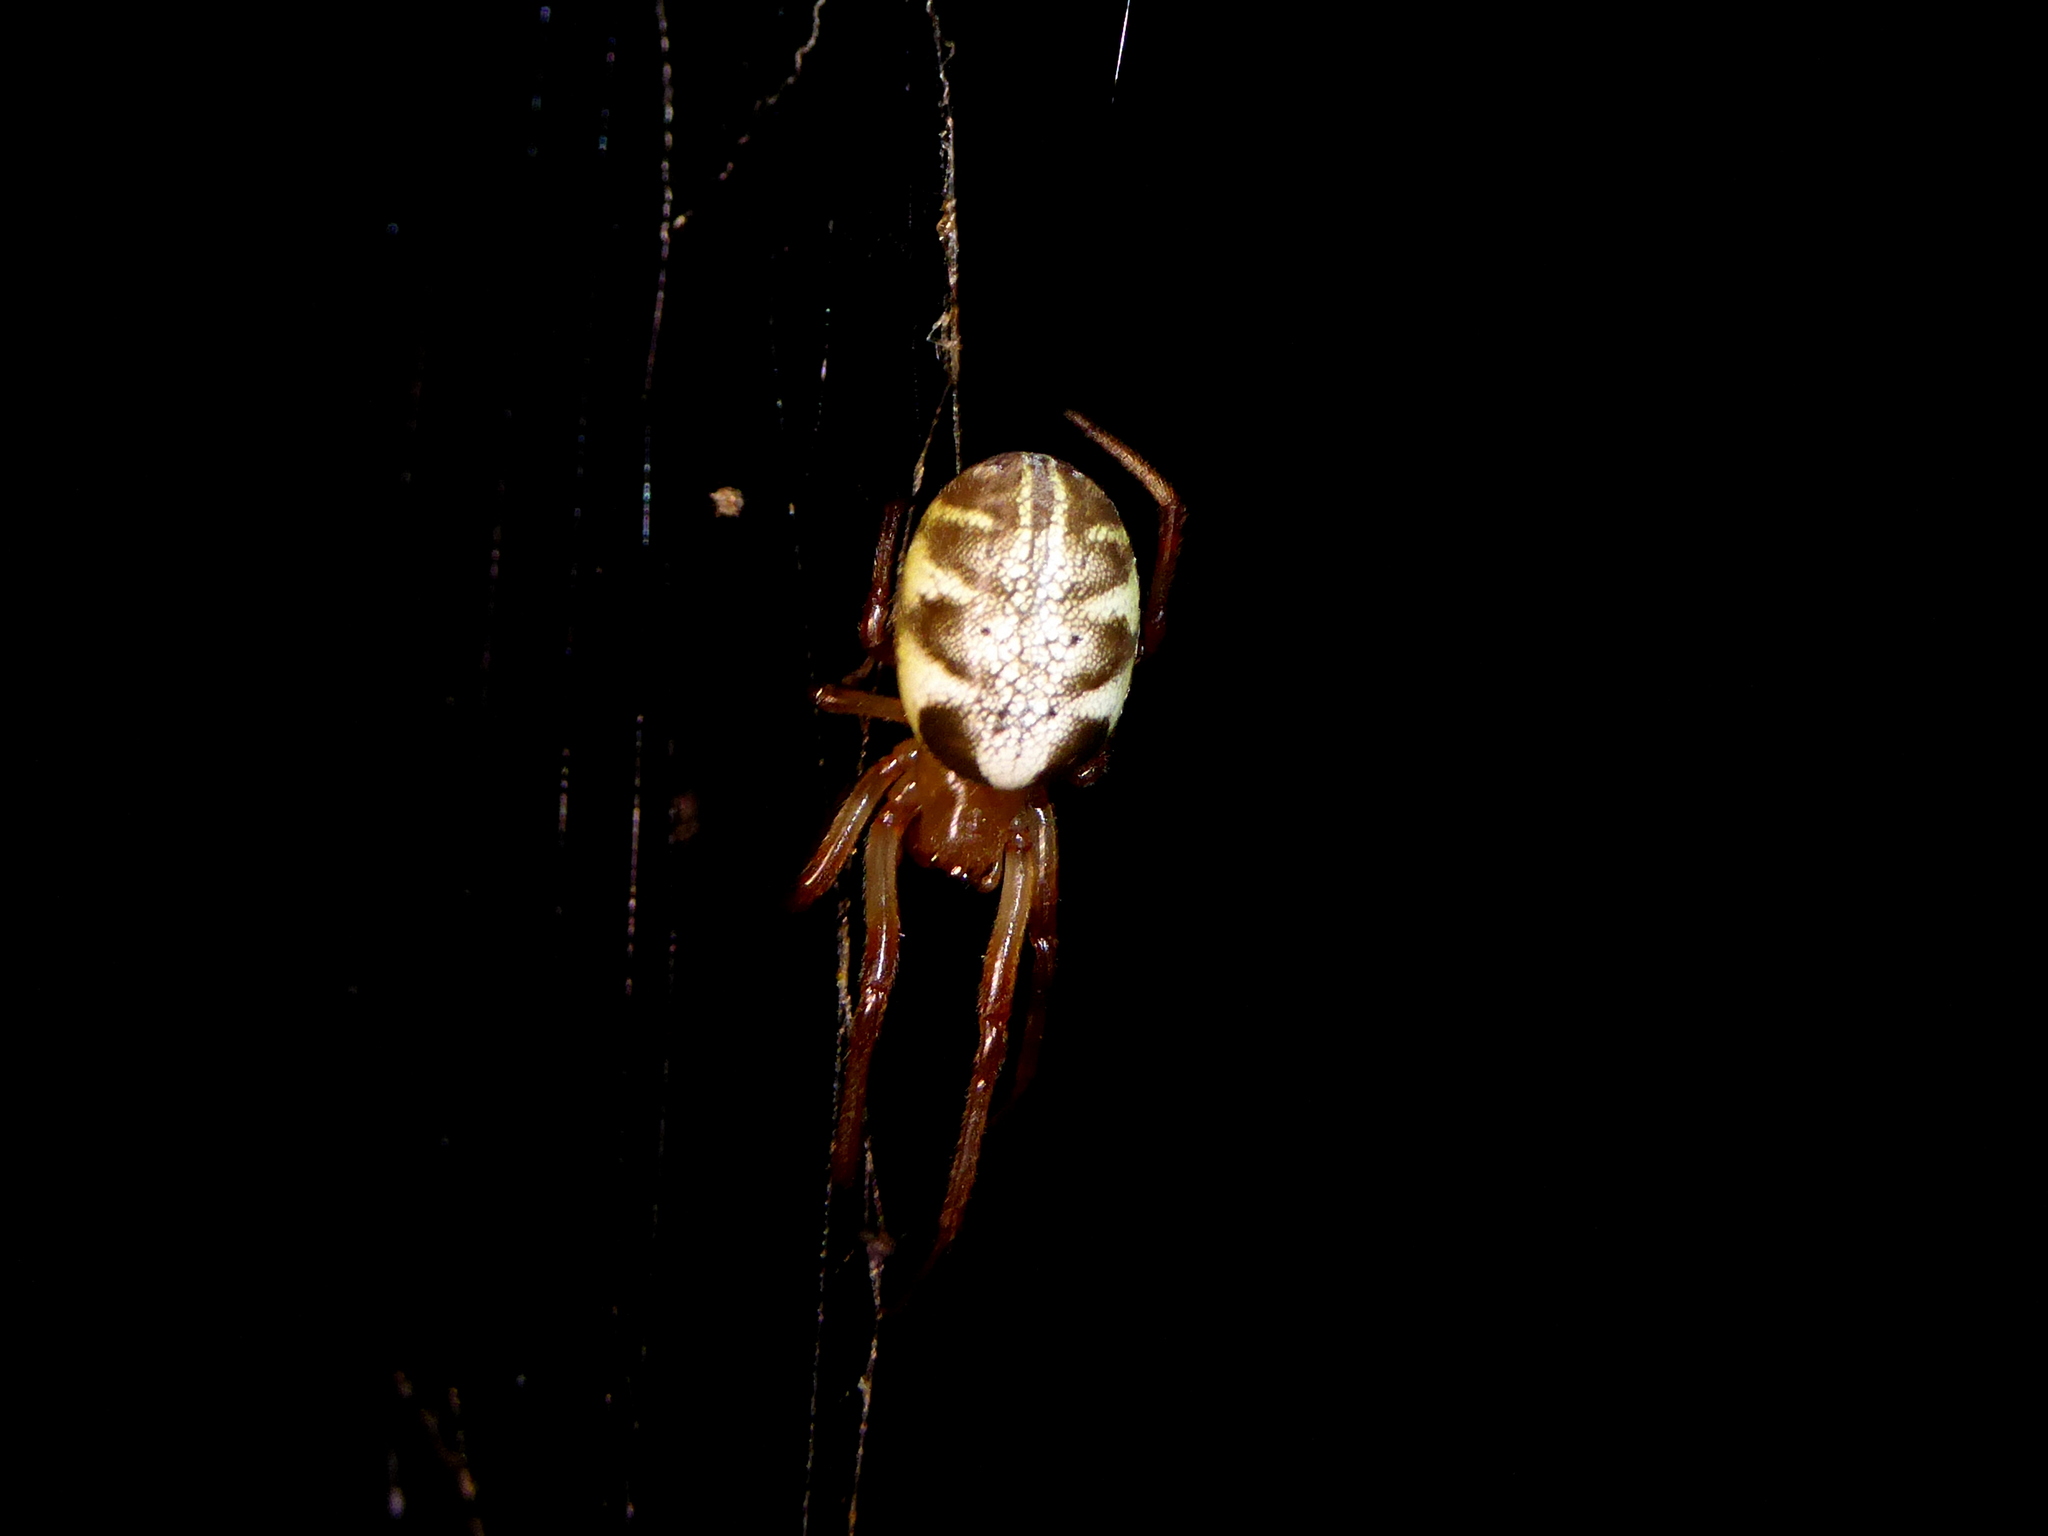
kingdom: Animalia
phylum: Arthropoda
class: Arachnida
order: Araneae
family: Araneidae
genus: Phonognatha
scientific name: Phonognatha graeffei
